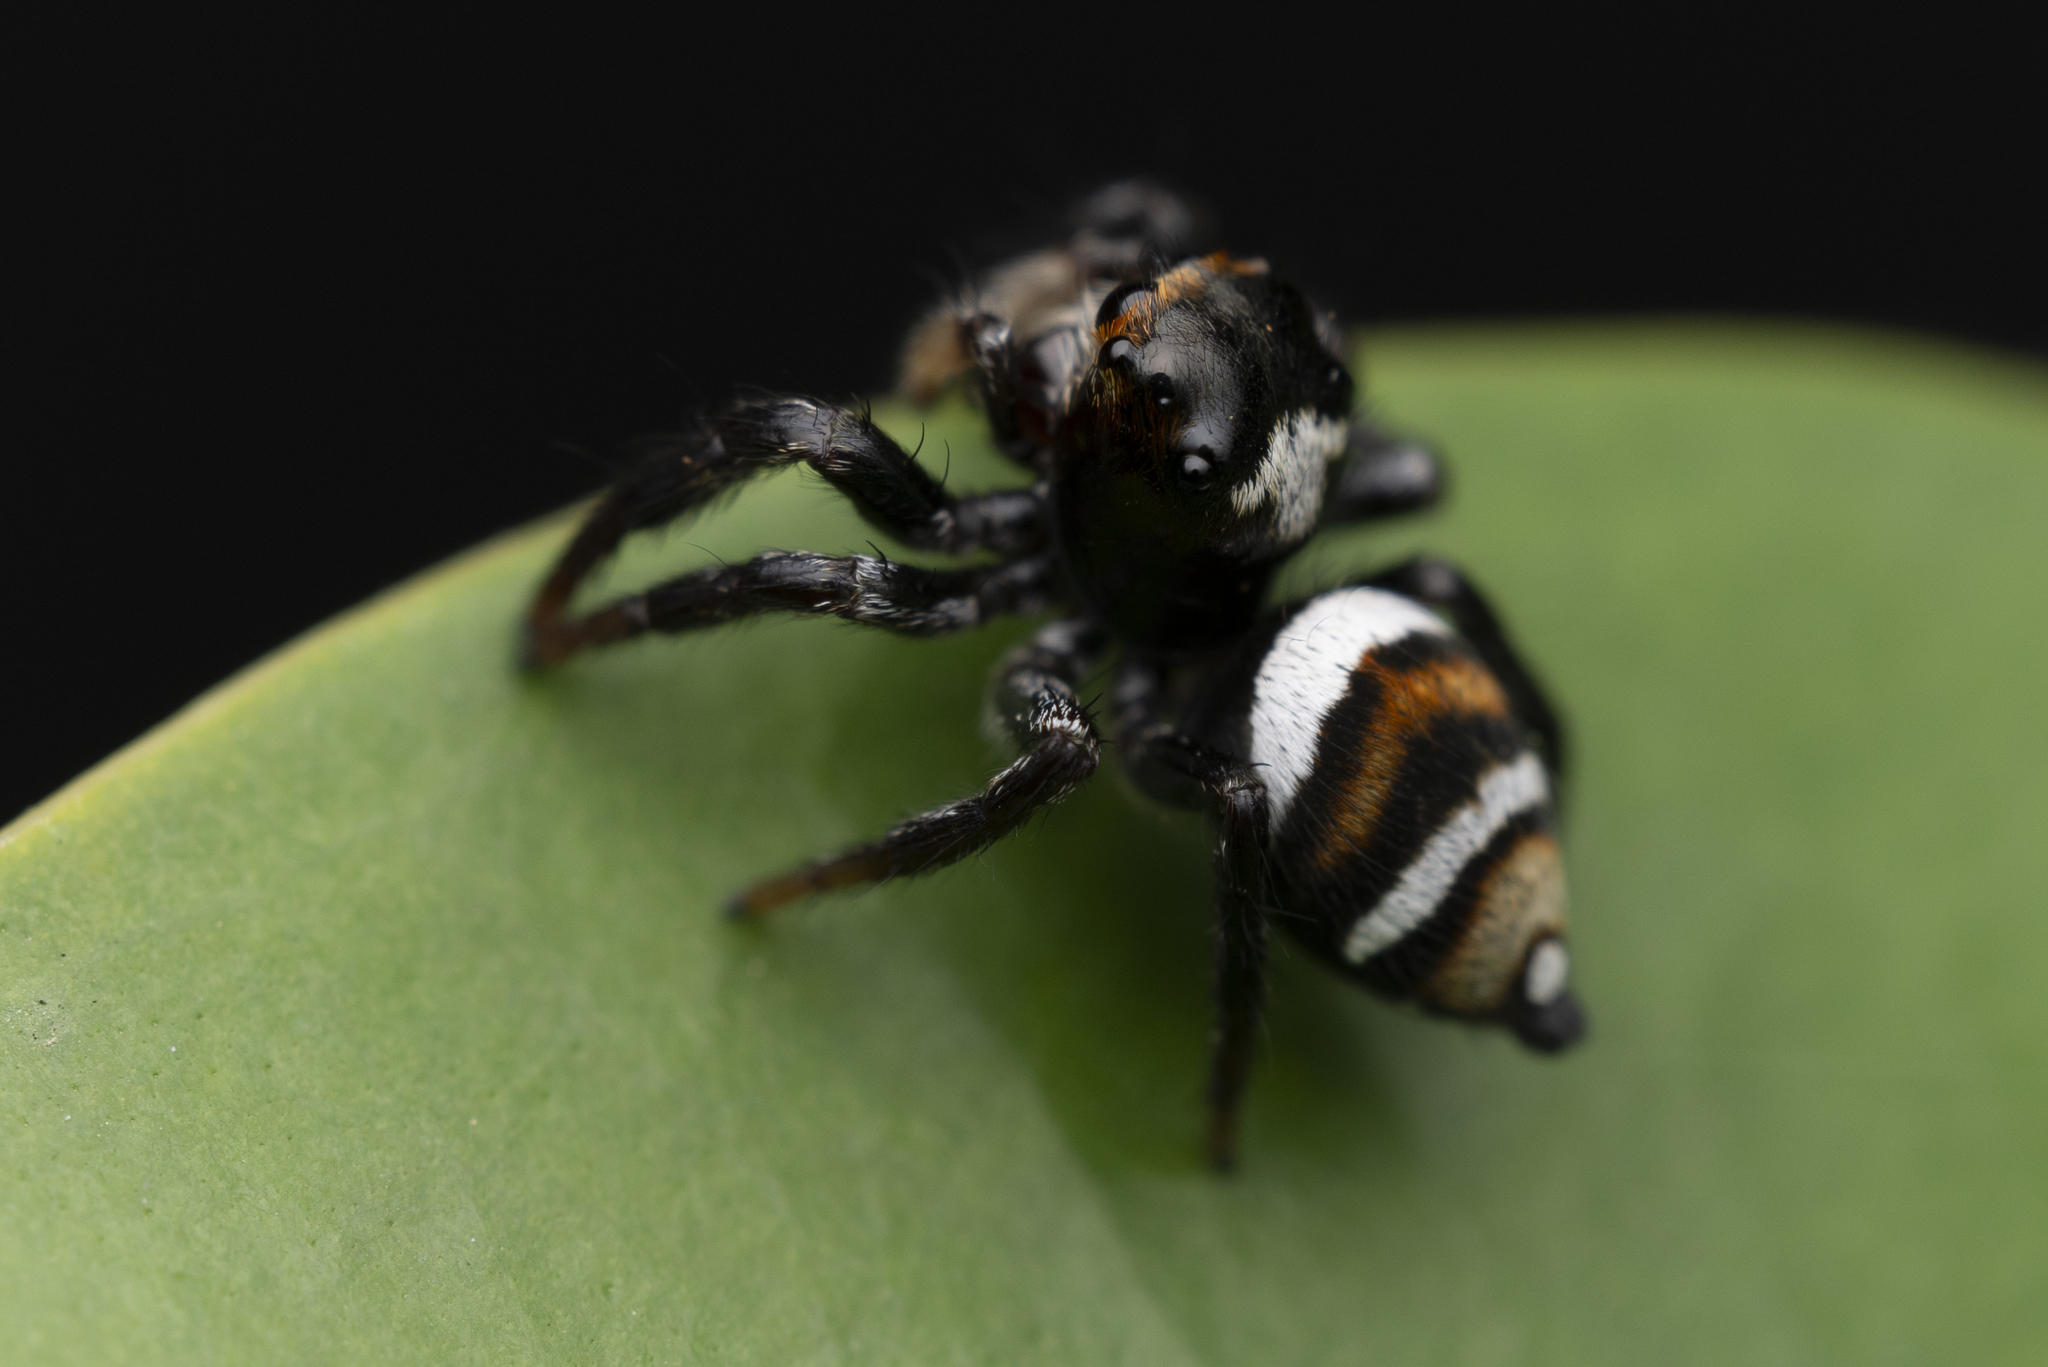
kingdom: Animalia
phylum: Arthropoda
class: Arachnida
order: Araneae
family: Salticidae
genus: Ptocasius
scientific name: Ptocasius strupifer
